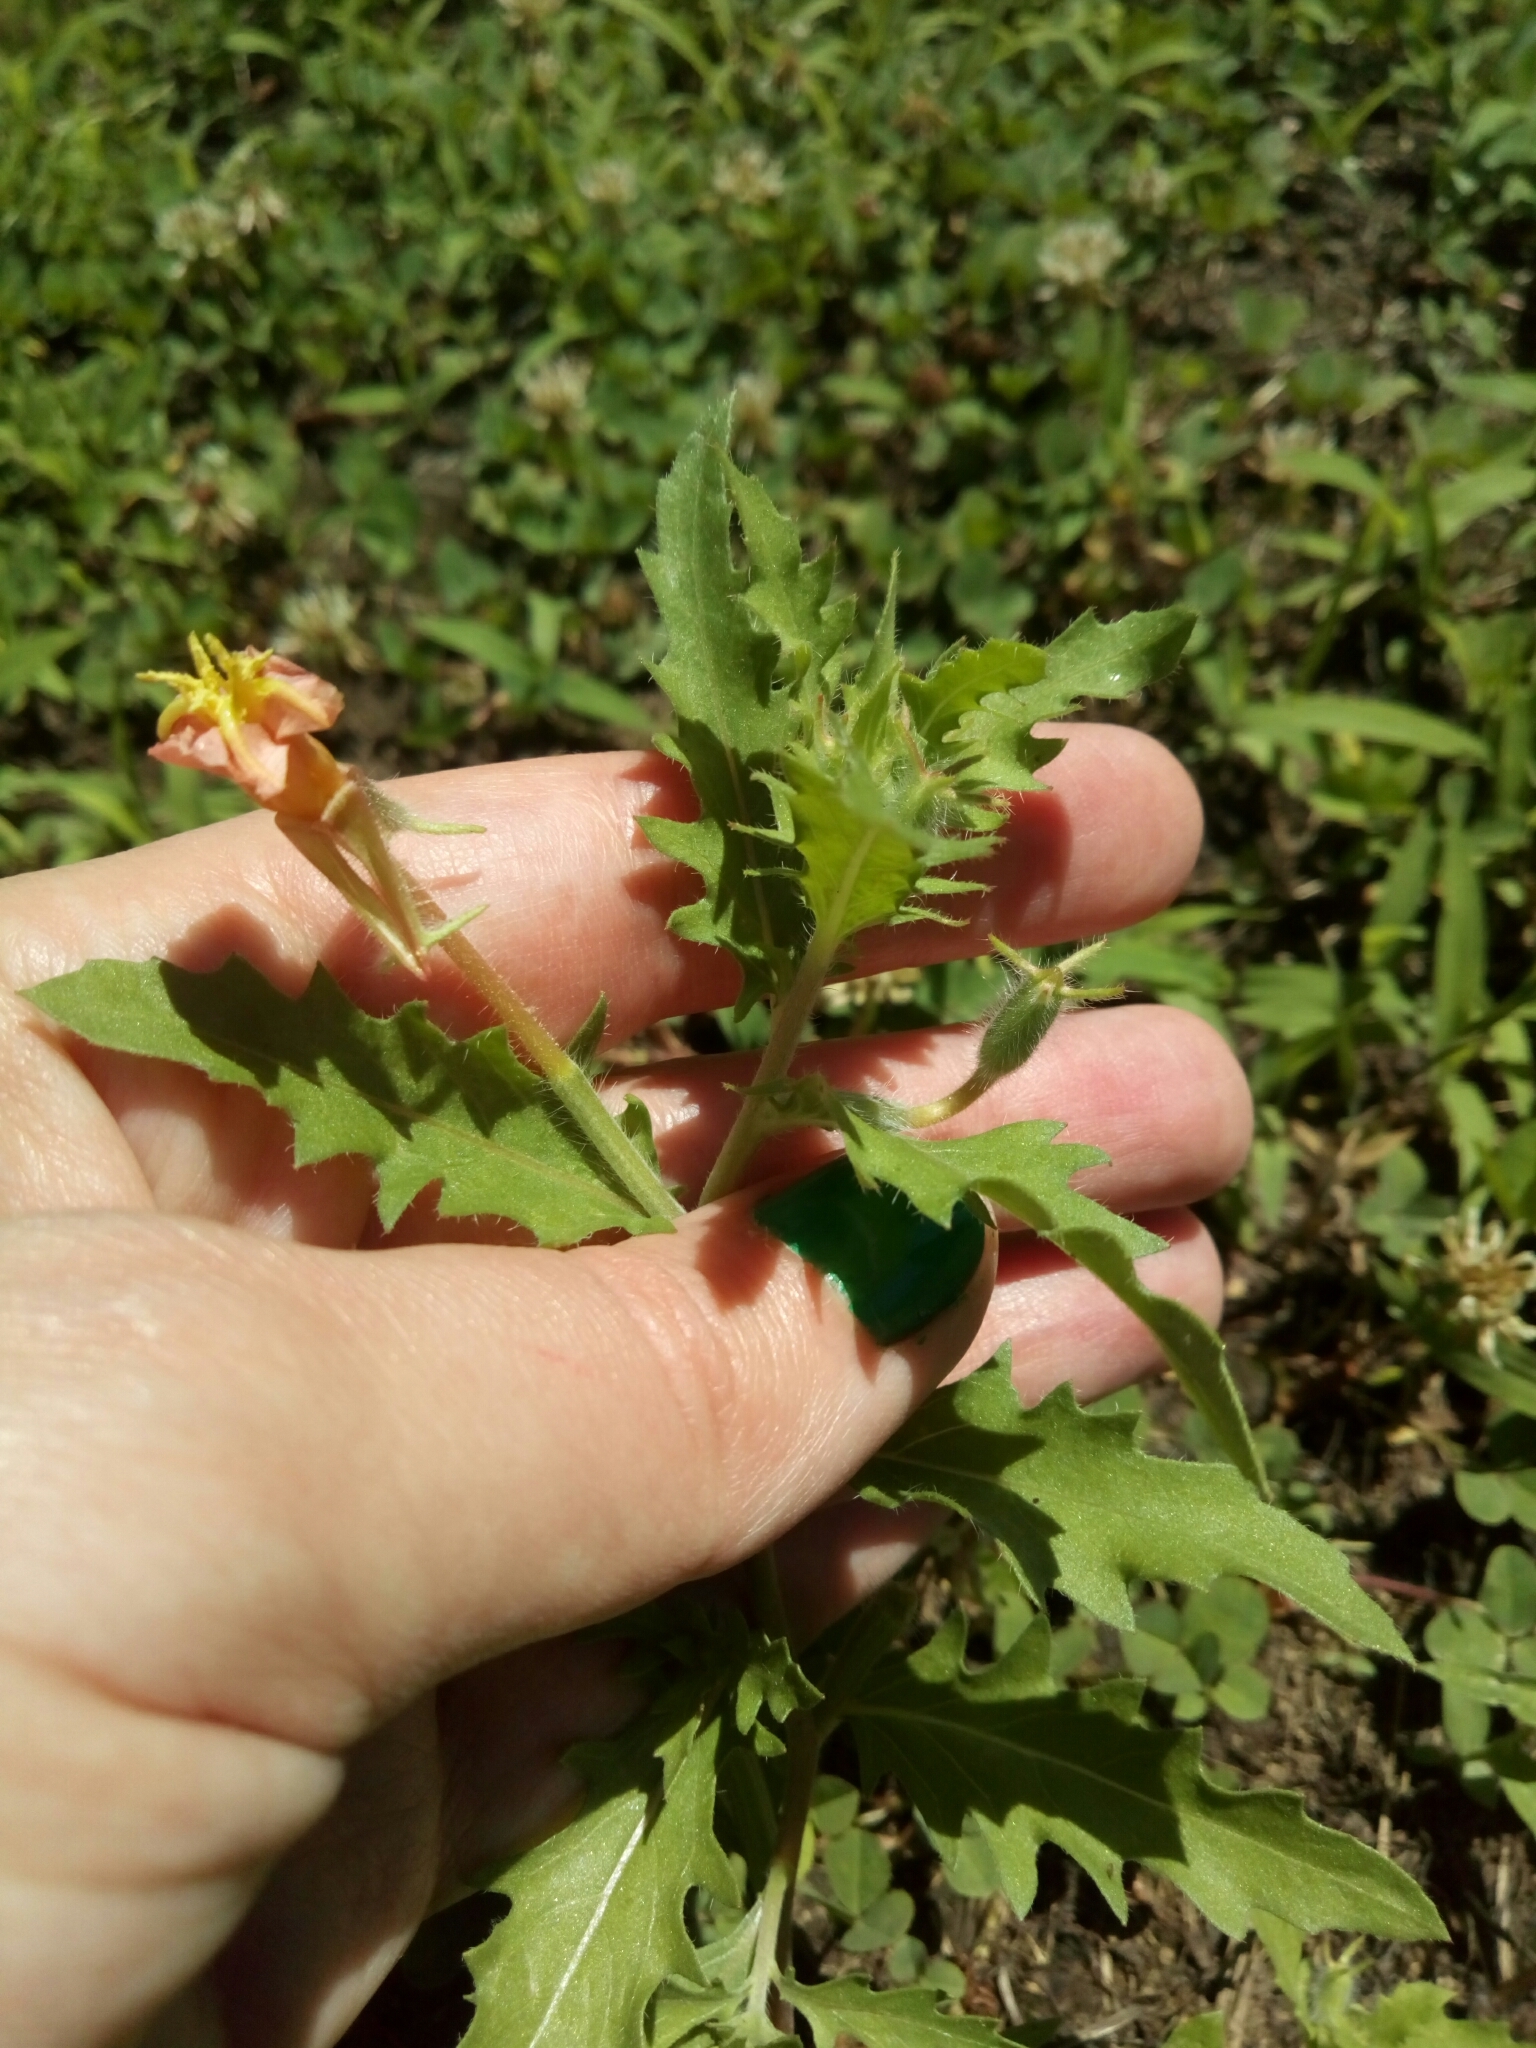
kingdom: Plantae
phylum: Tracheophyta
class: Magnoliopsida
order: Myrtales
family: Onagraceae
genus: Oenothera
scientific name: Oenothera laciniata
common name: Cut-leaved evening-primrose
